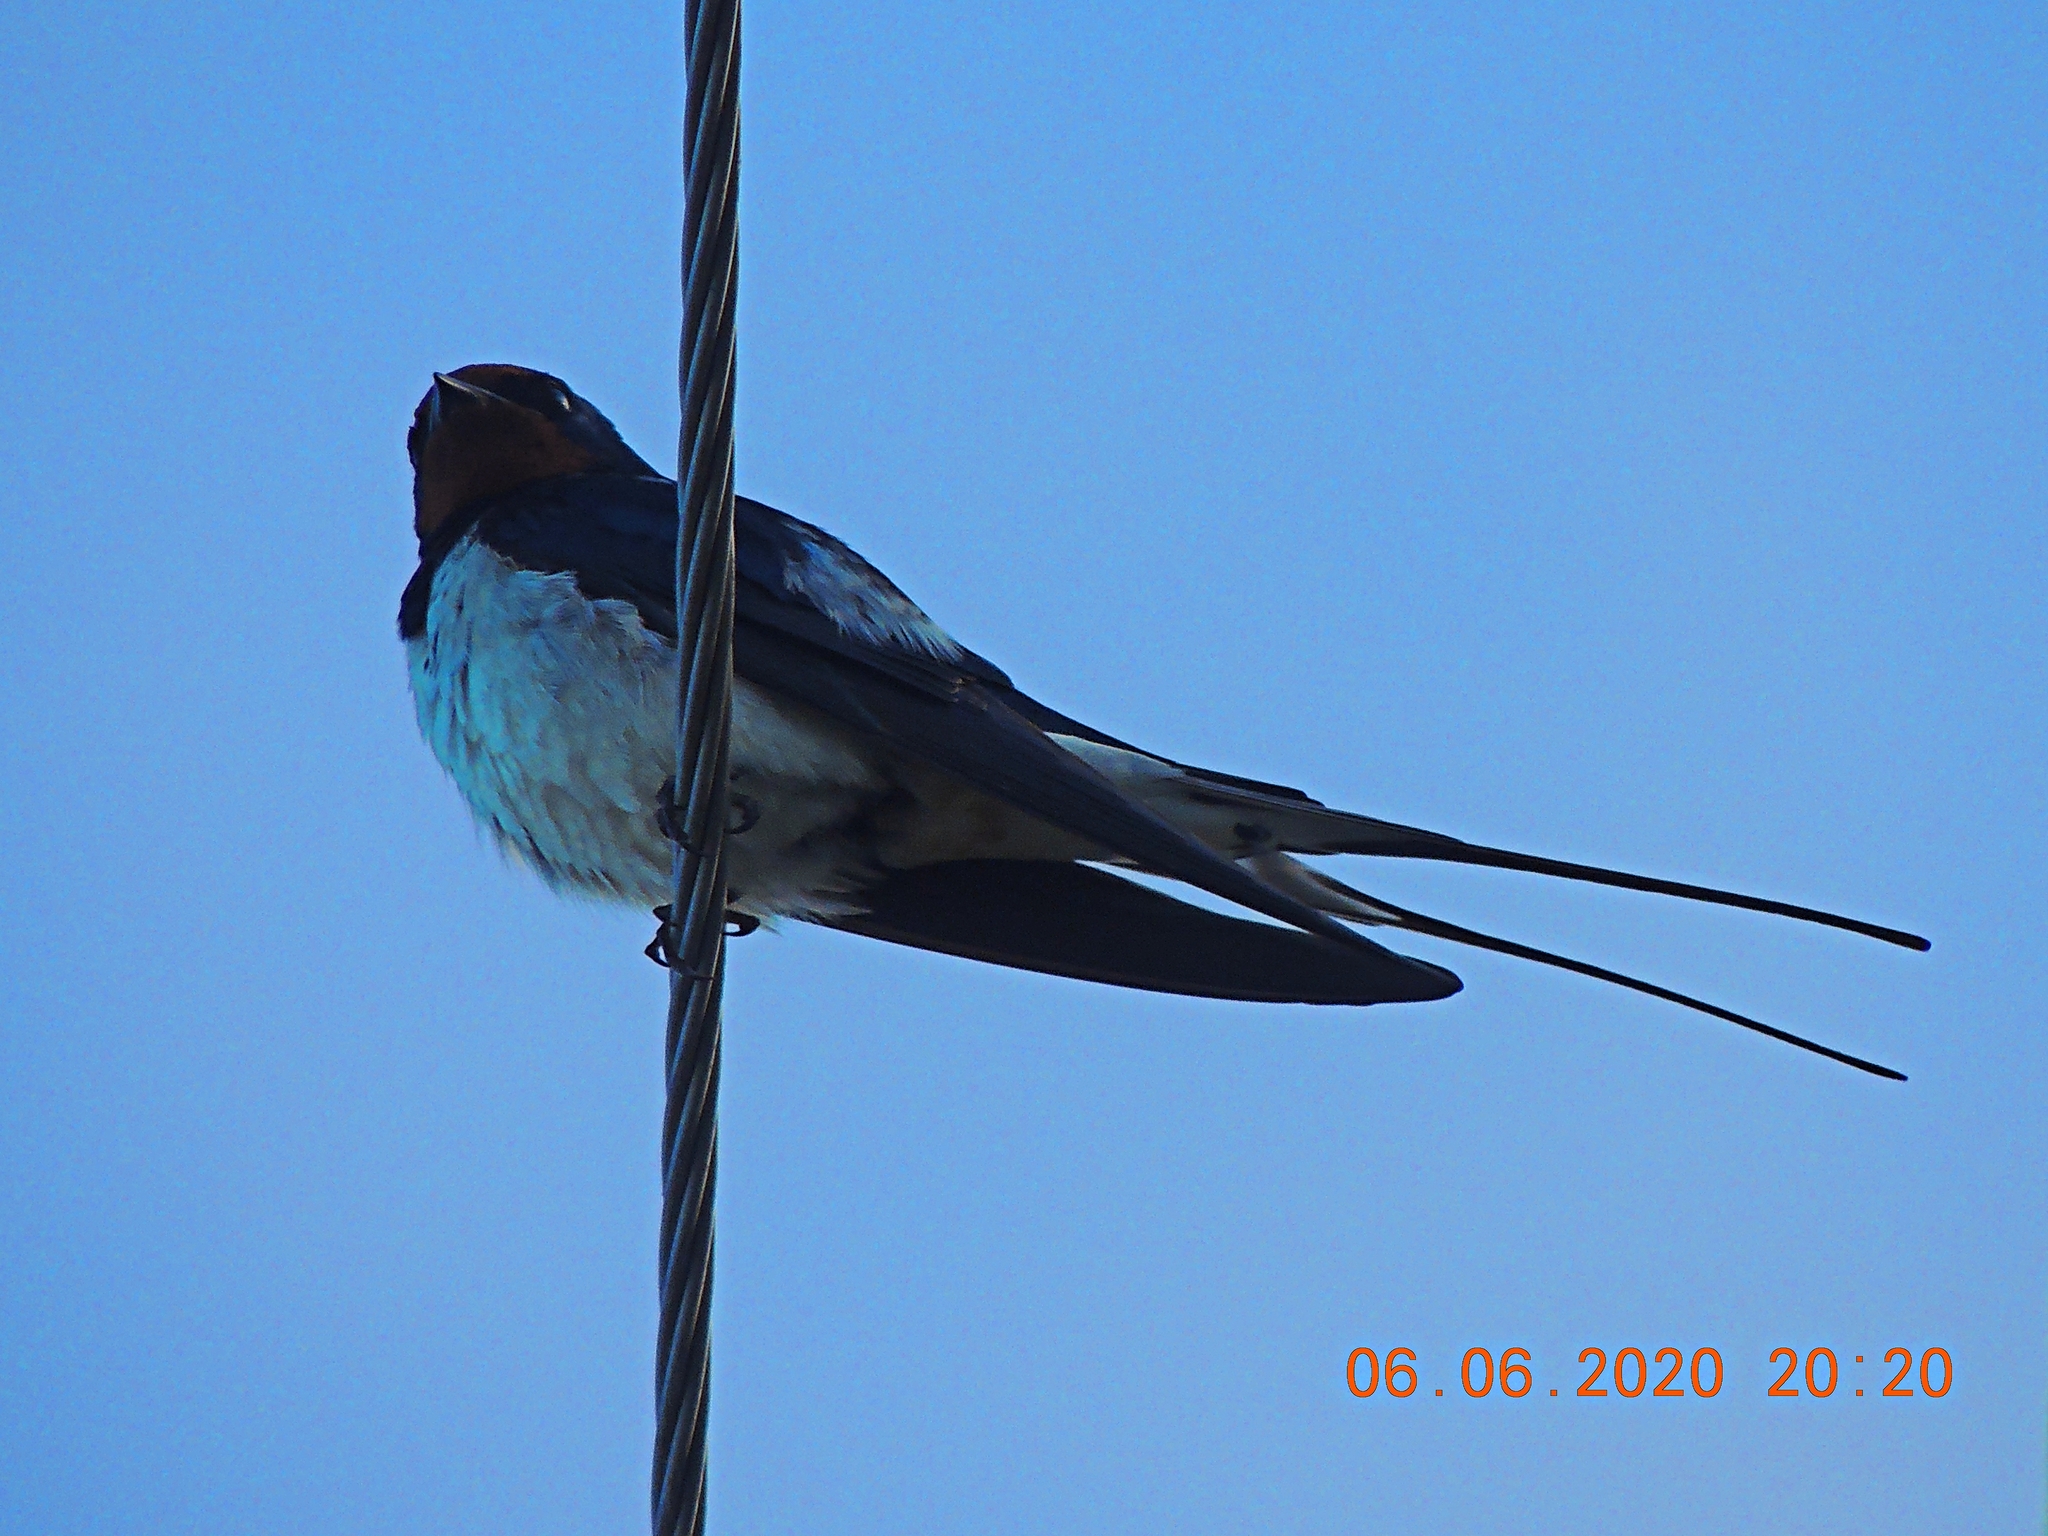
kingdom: Animalia
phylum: Chordata
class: Aves
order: Passeriformes
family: Hirundinidae
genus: Hirundo
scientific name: Hirundo rustica
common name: Barn swallow
